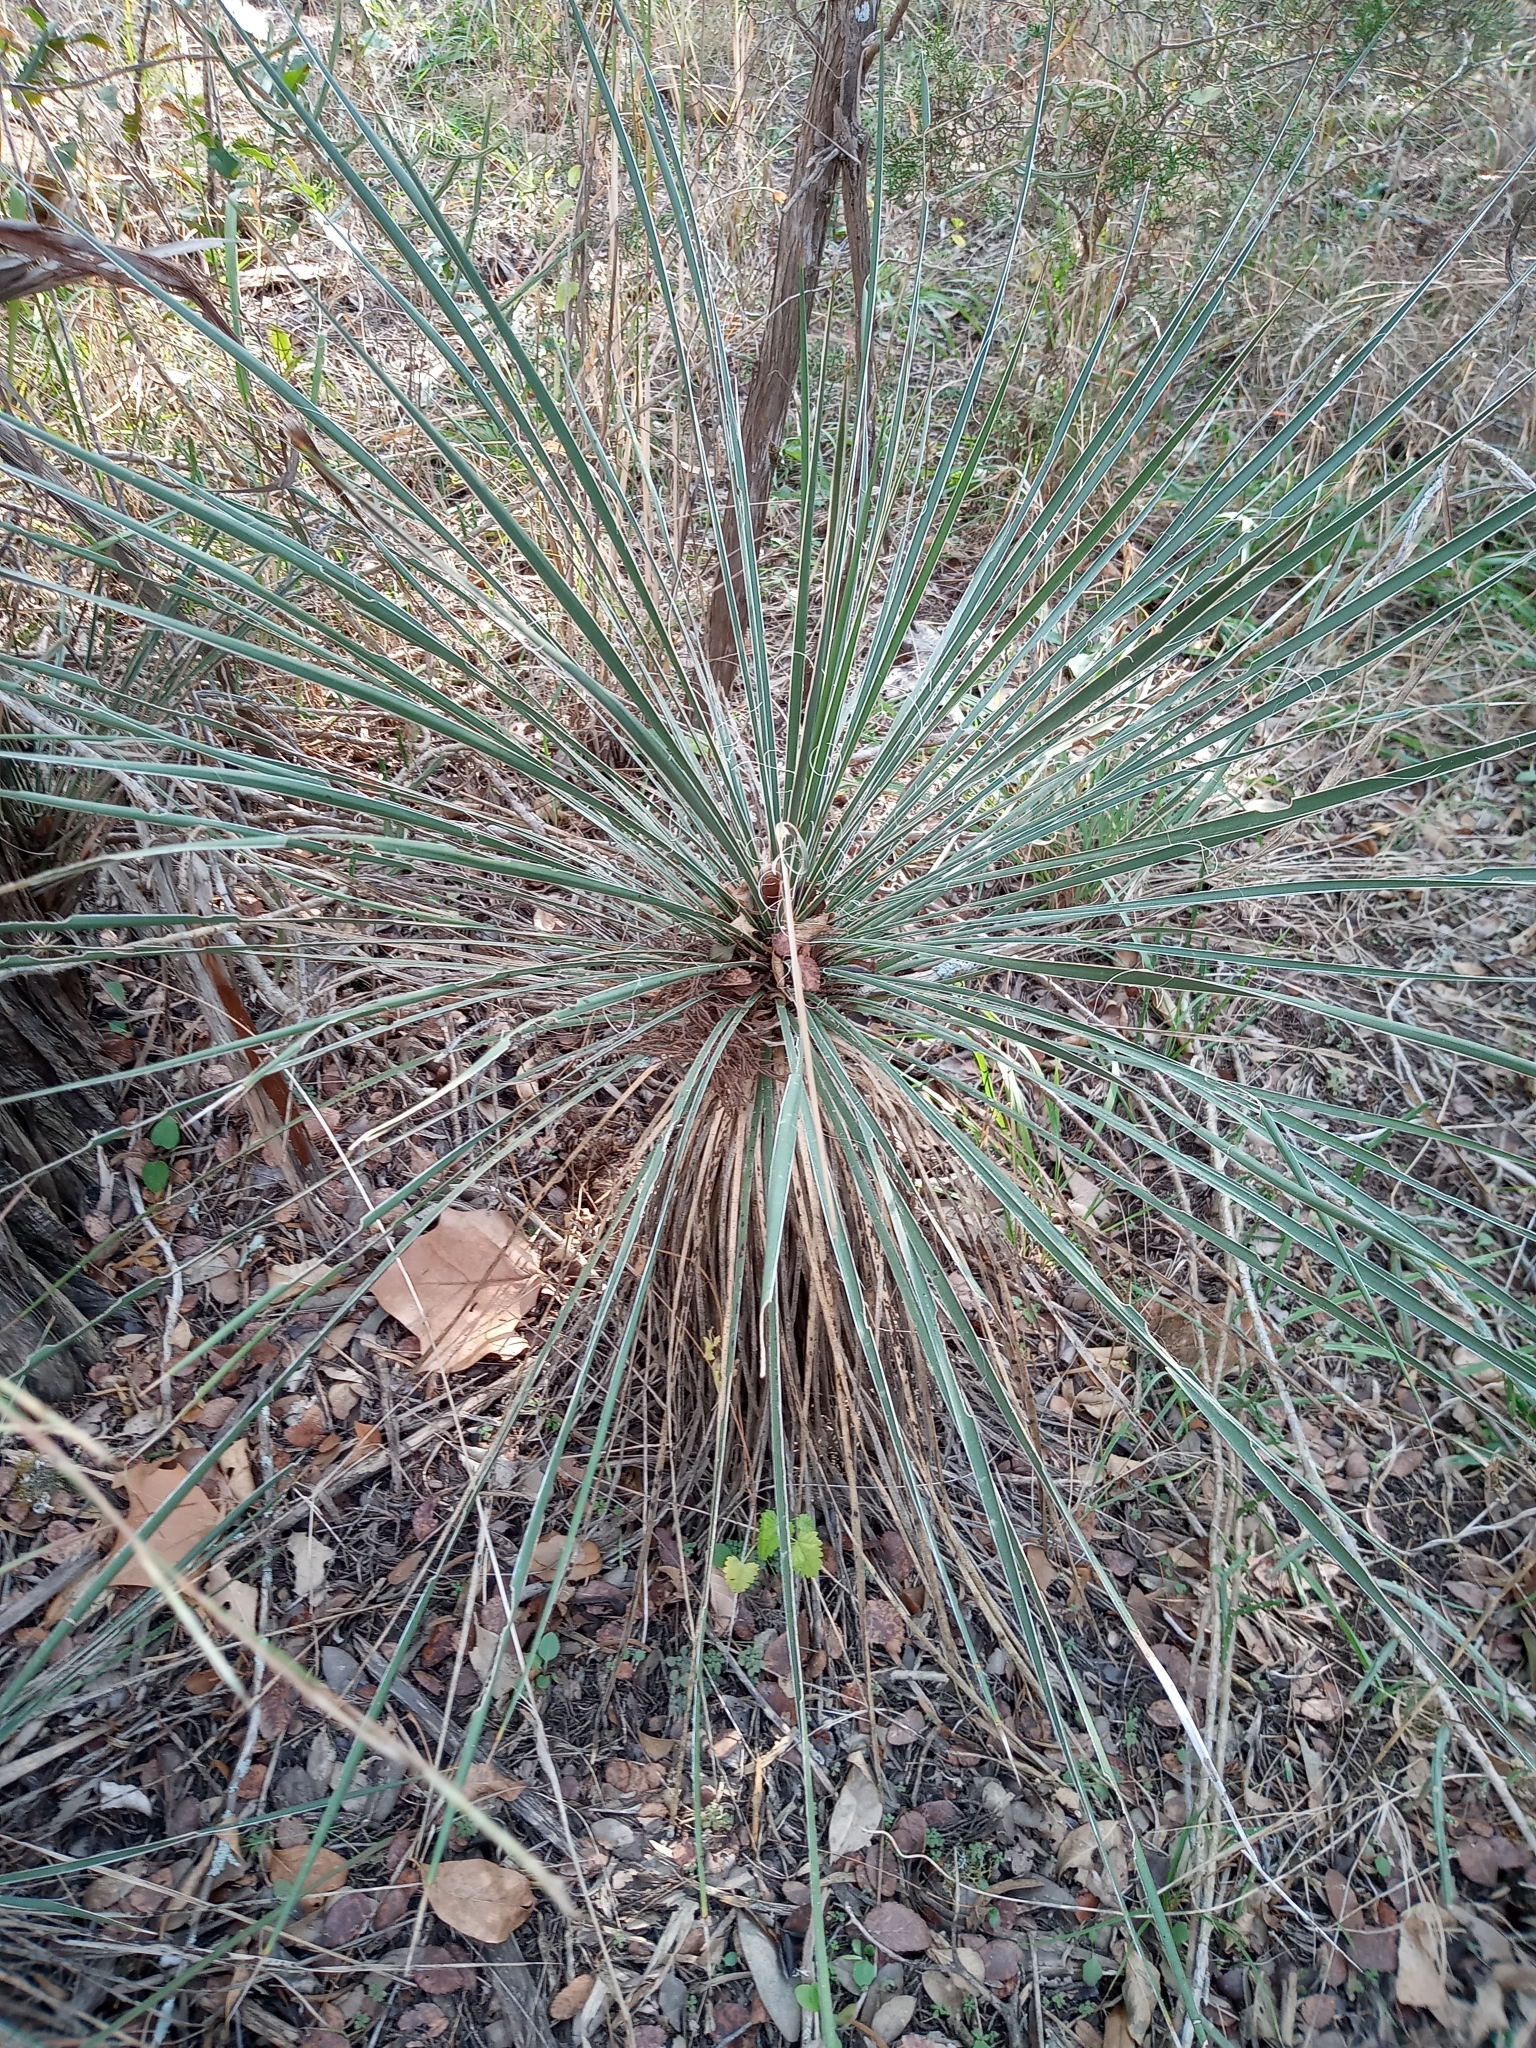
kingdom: Plantae
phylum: Tracheophyta
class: Liliopsida
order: Asparagales
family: Asparagaceae
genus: Yucca
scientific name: Yucca constricta
